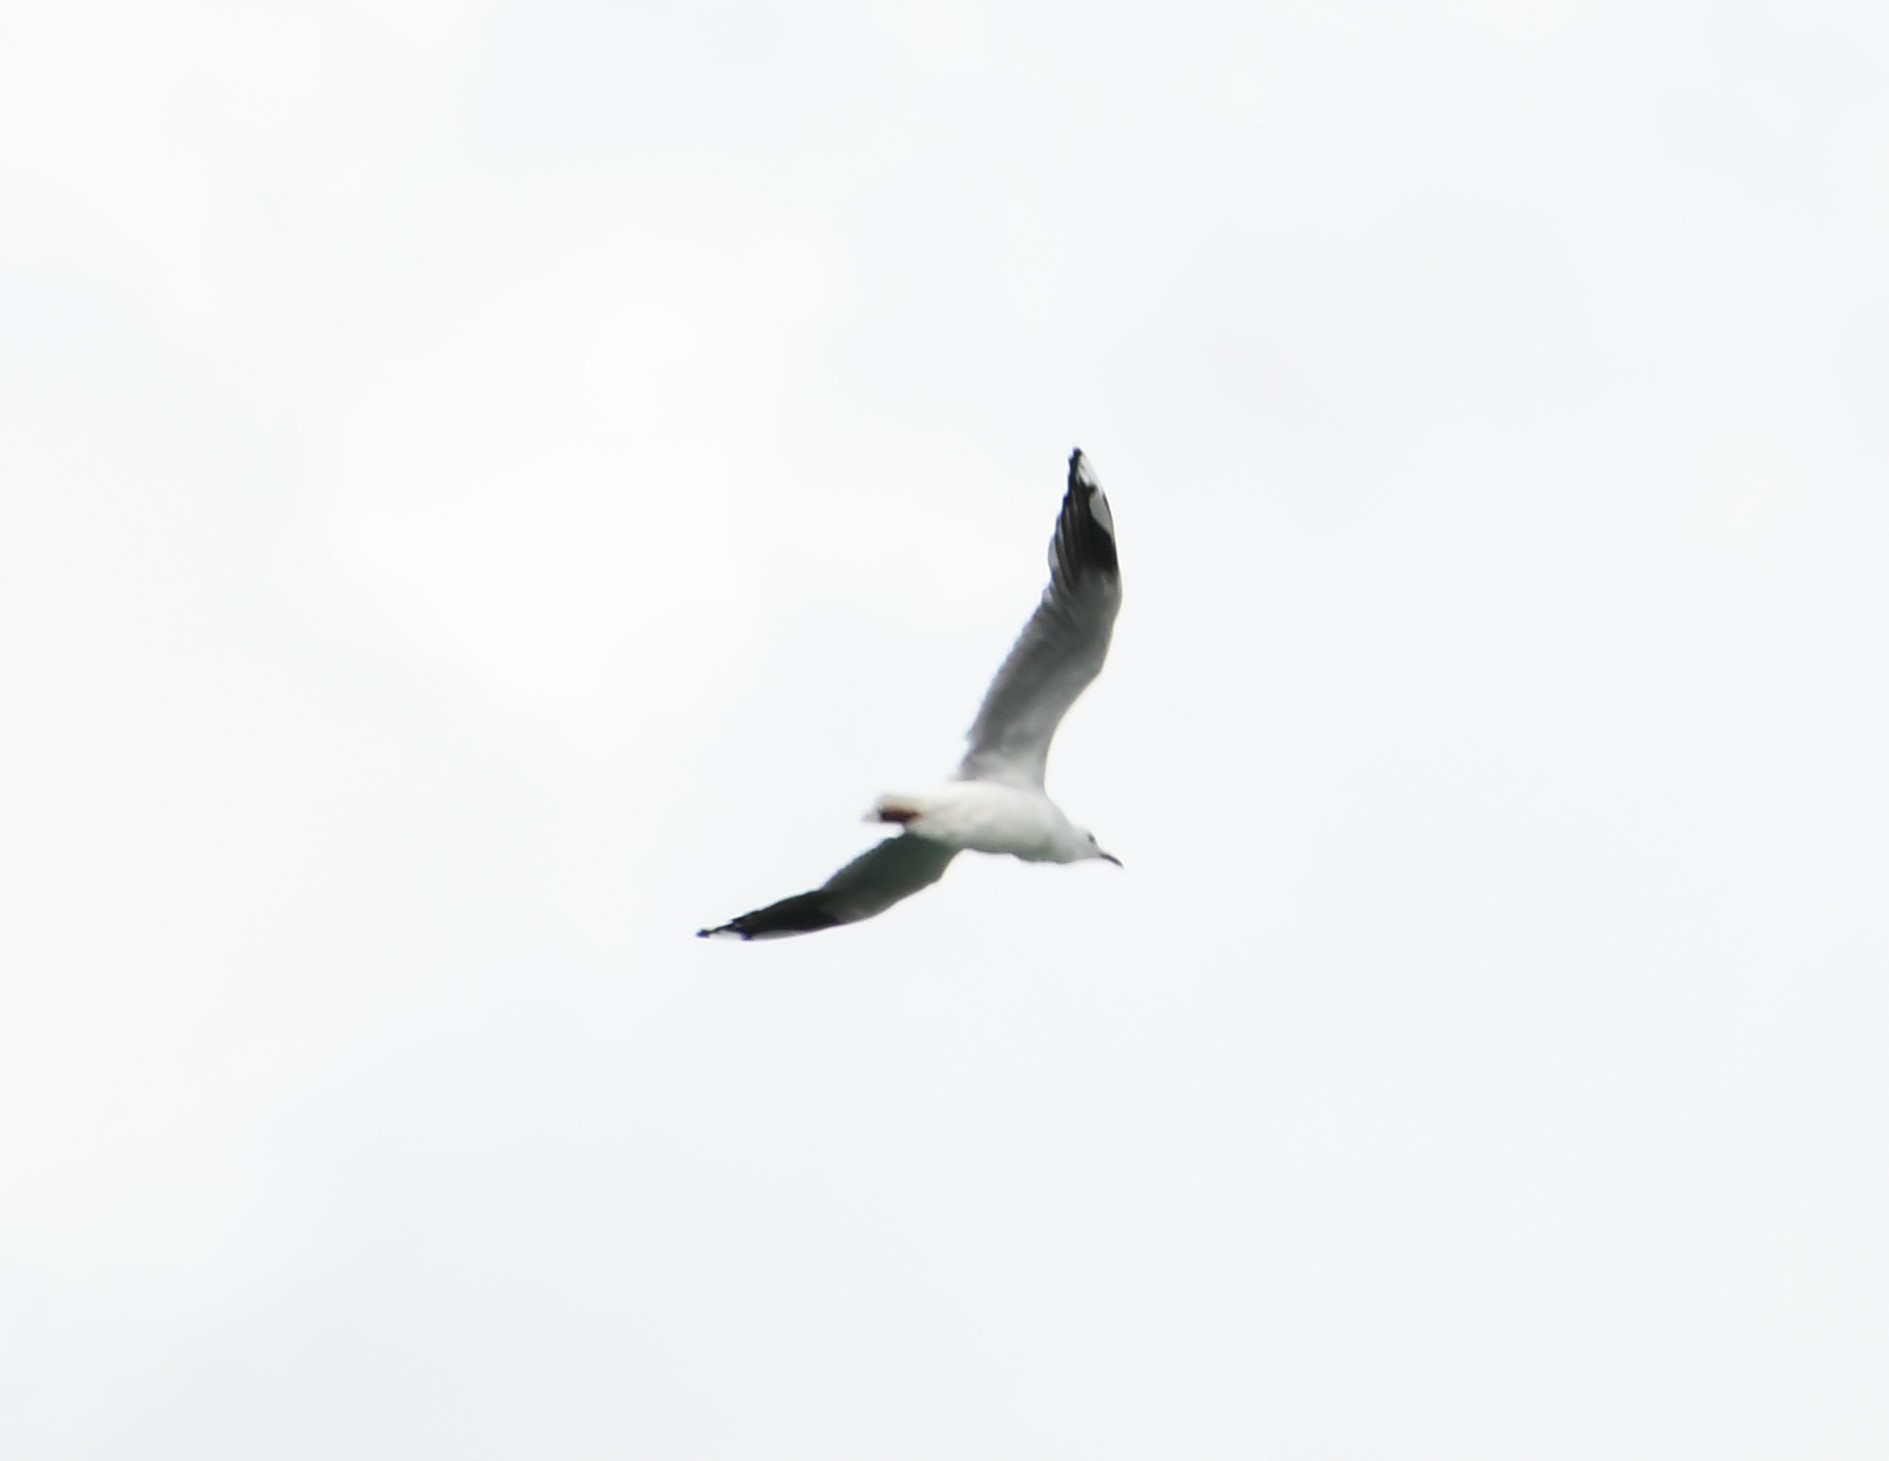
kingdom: Animalia
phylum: Chordata
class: Aves
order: Charadriiformes
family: Laridae
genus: Chroicocephalus
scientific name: Chroicocephalus novaehollandiae
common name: Silver gull
